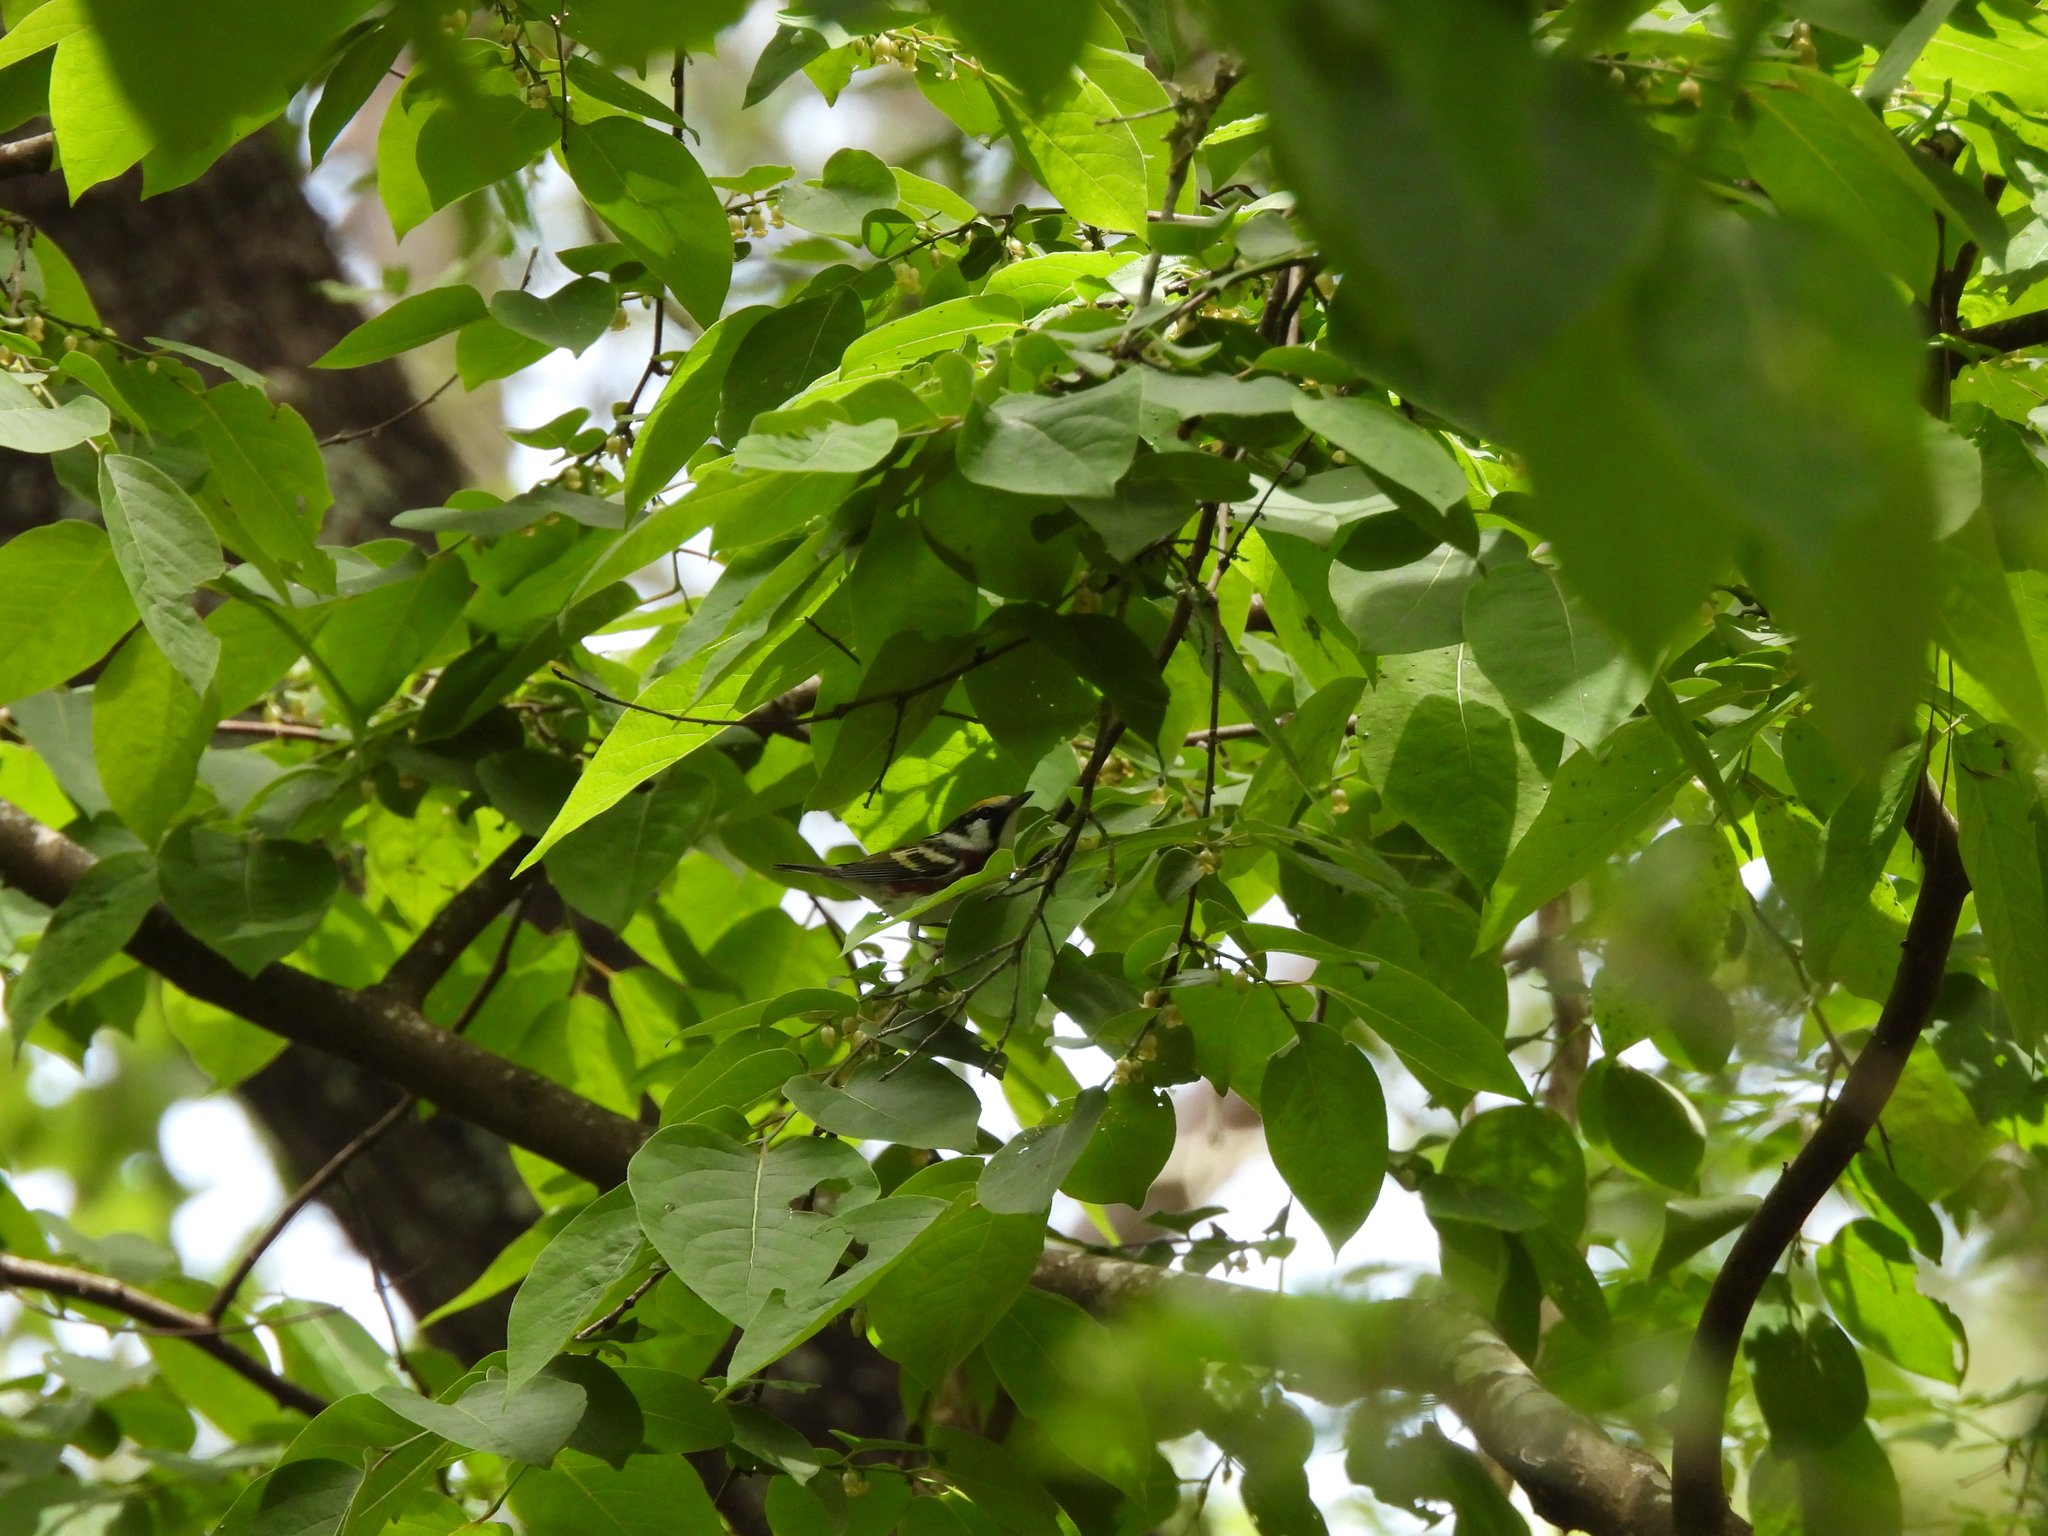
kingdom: Animalia
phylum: Chordata
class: Aves
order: Passeriformes
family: Parulidae
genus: Setophaga
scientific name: Setophaga pensylvanica
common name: Chestnut-sided warbler
